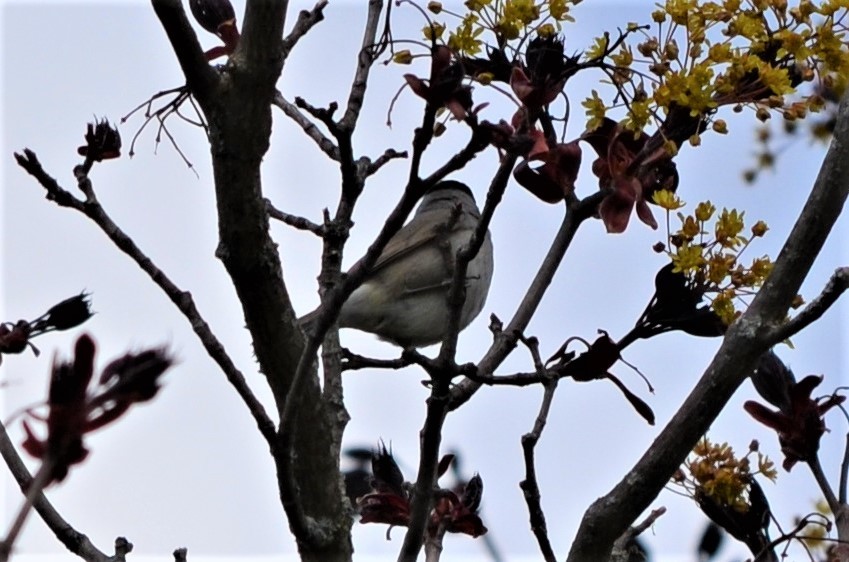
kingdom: Animalia
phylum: Chordata
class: Aves
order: Passeriformes
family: Sylviidae
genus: Sylvia
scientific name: Sylvia atricapilla
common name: Eurasian blackcap
